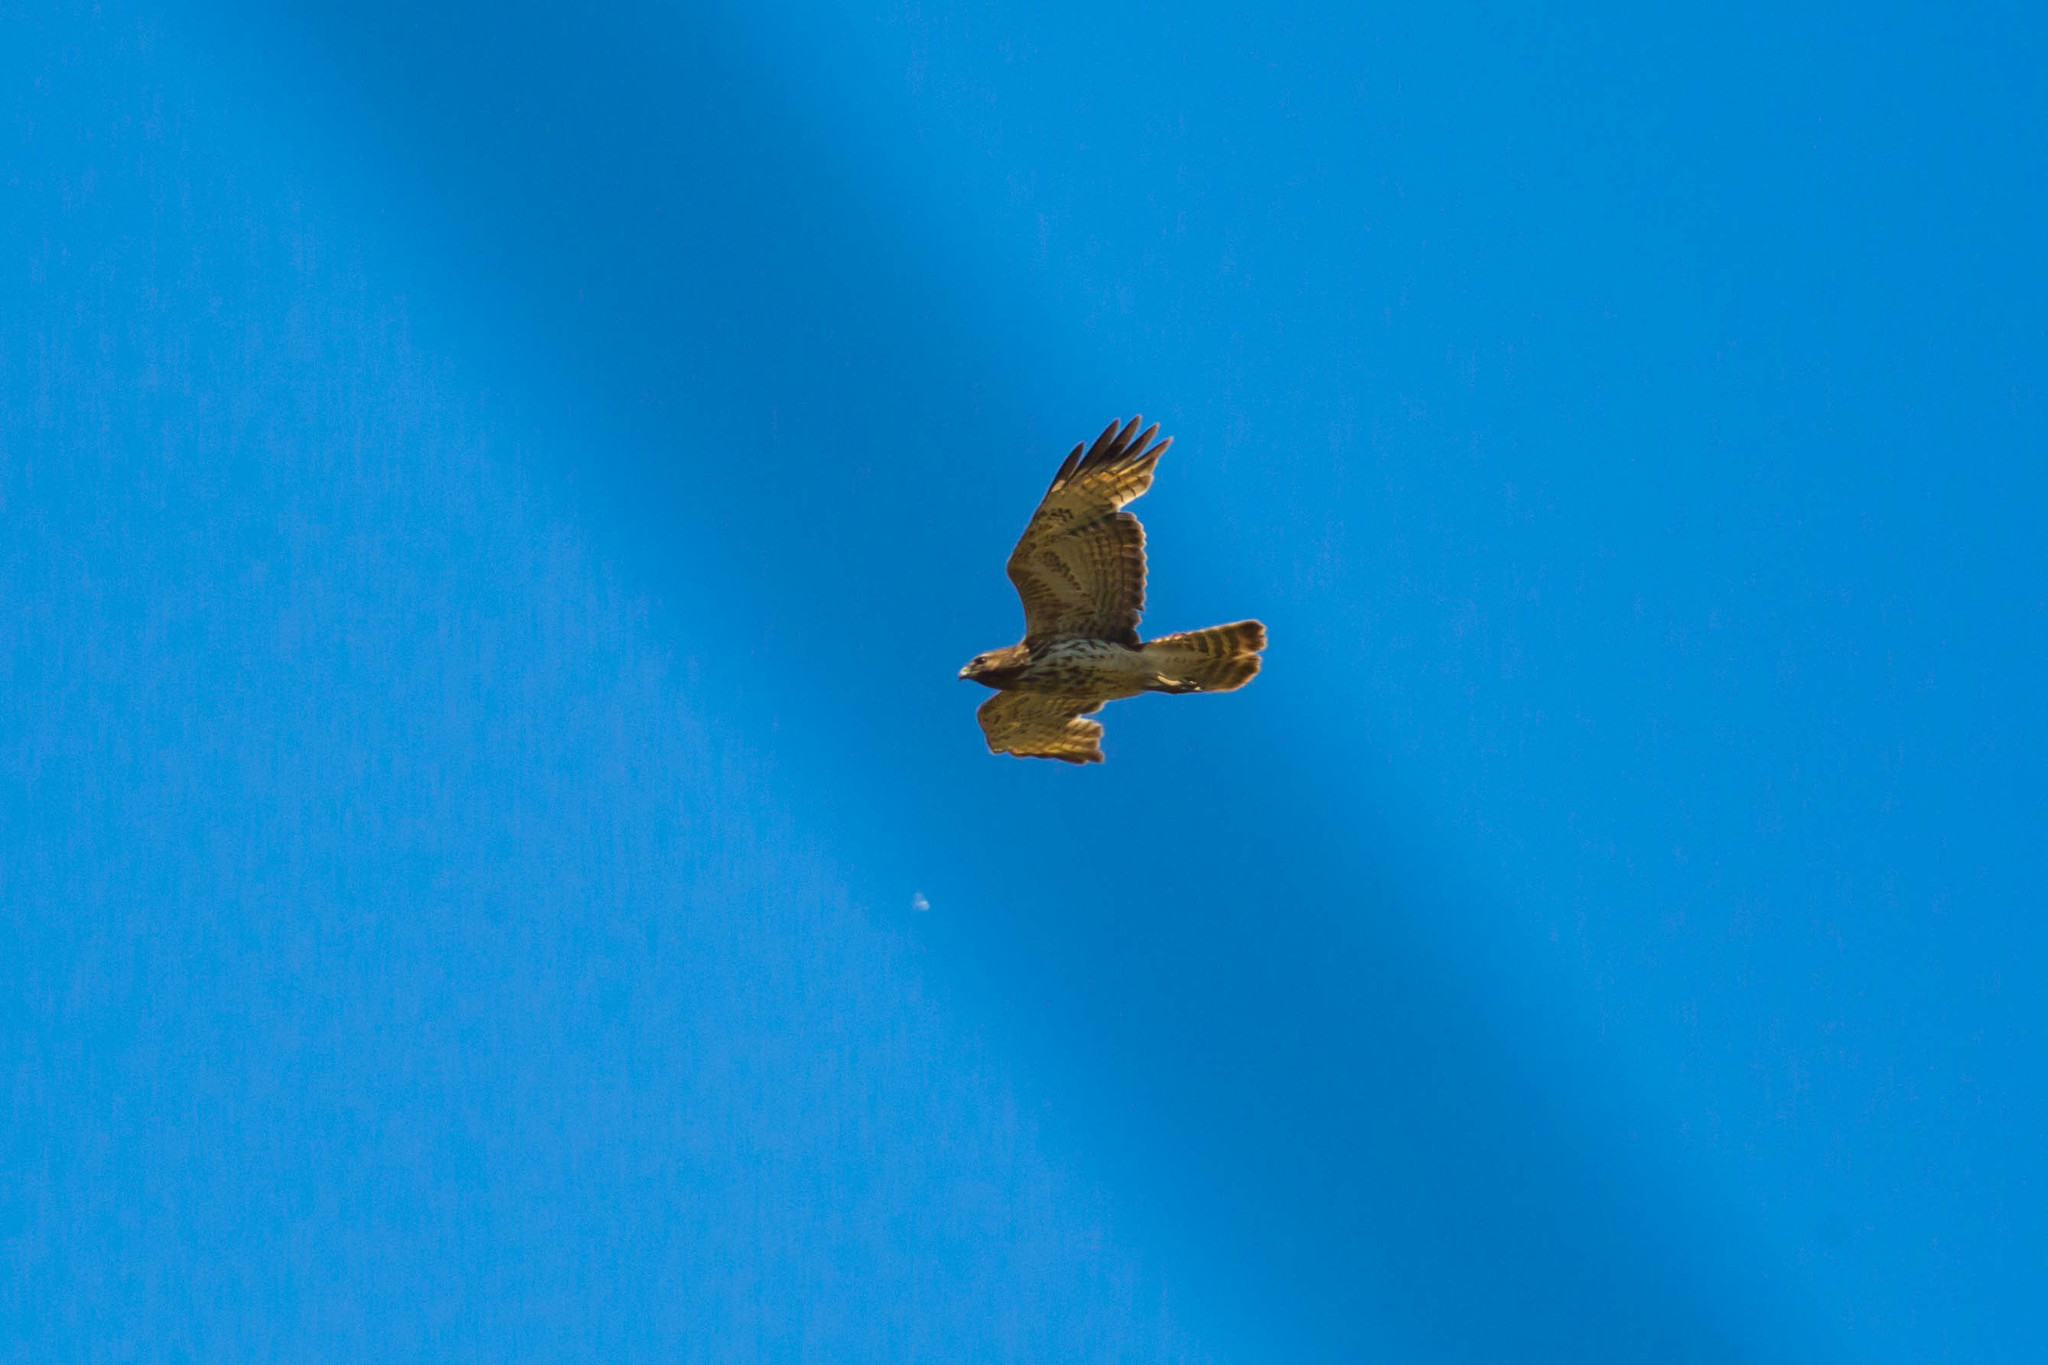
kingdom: Animalia
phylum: Chordata
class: Aves
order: Accipitriformes
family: Accipitridae
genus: Buteo
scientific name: Buteo jamaicensis
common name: Red-tailed hawk
